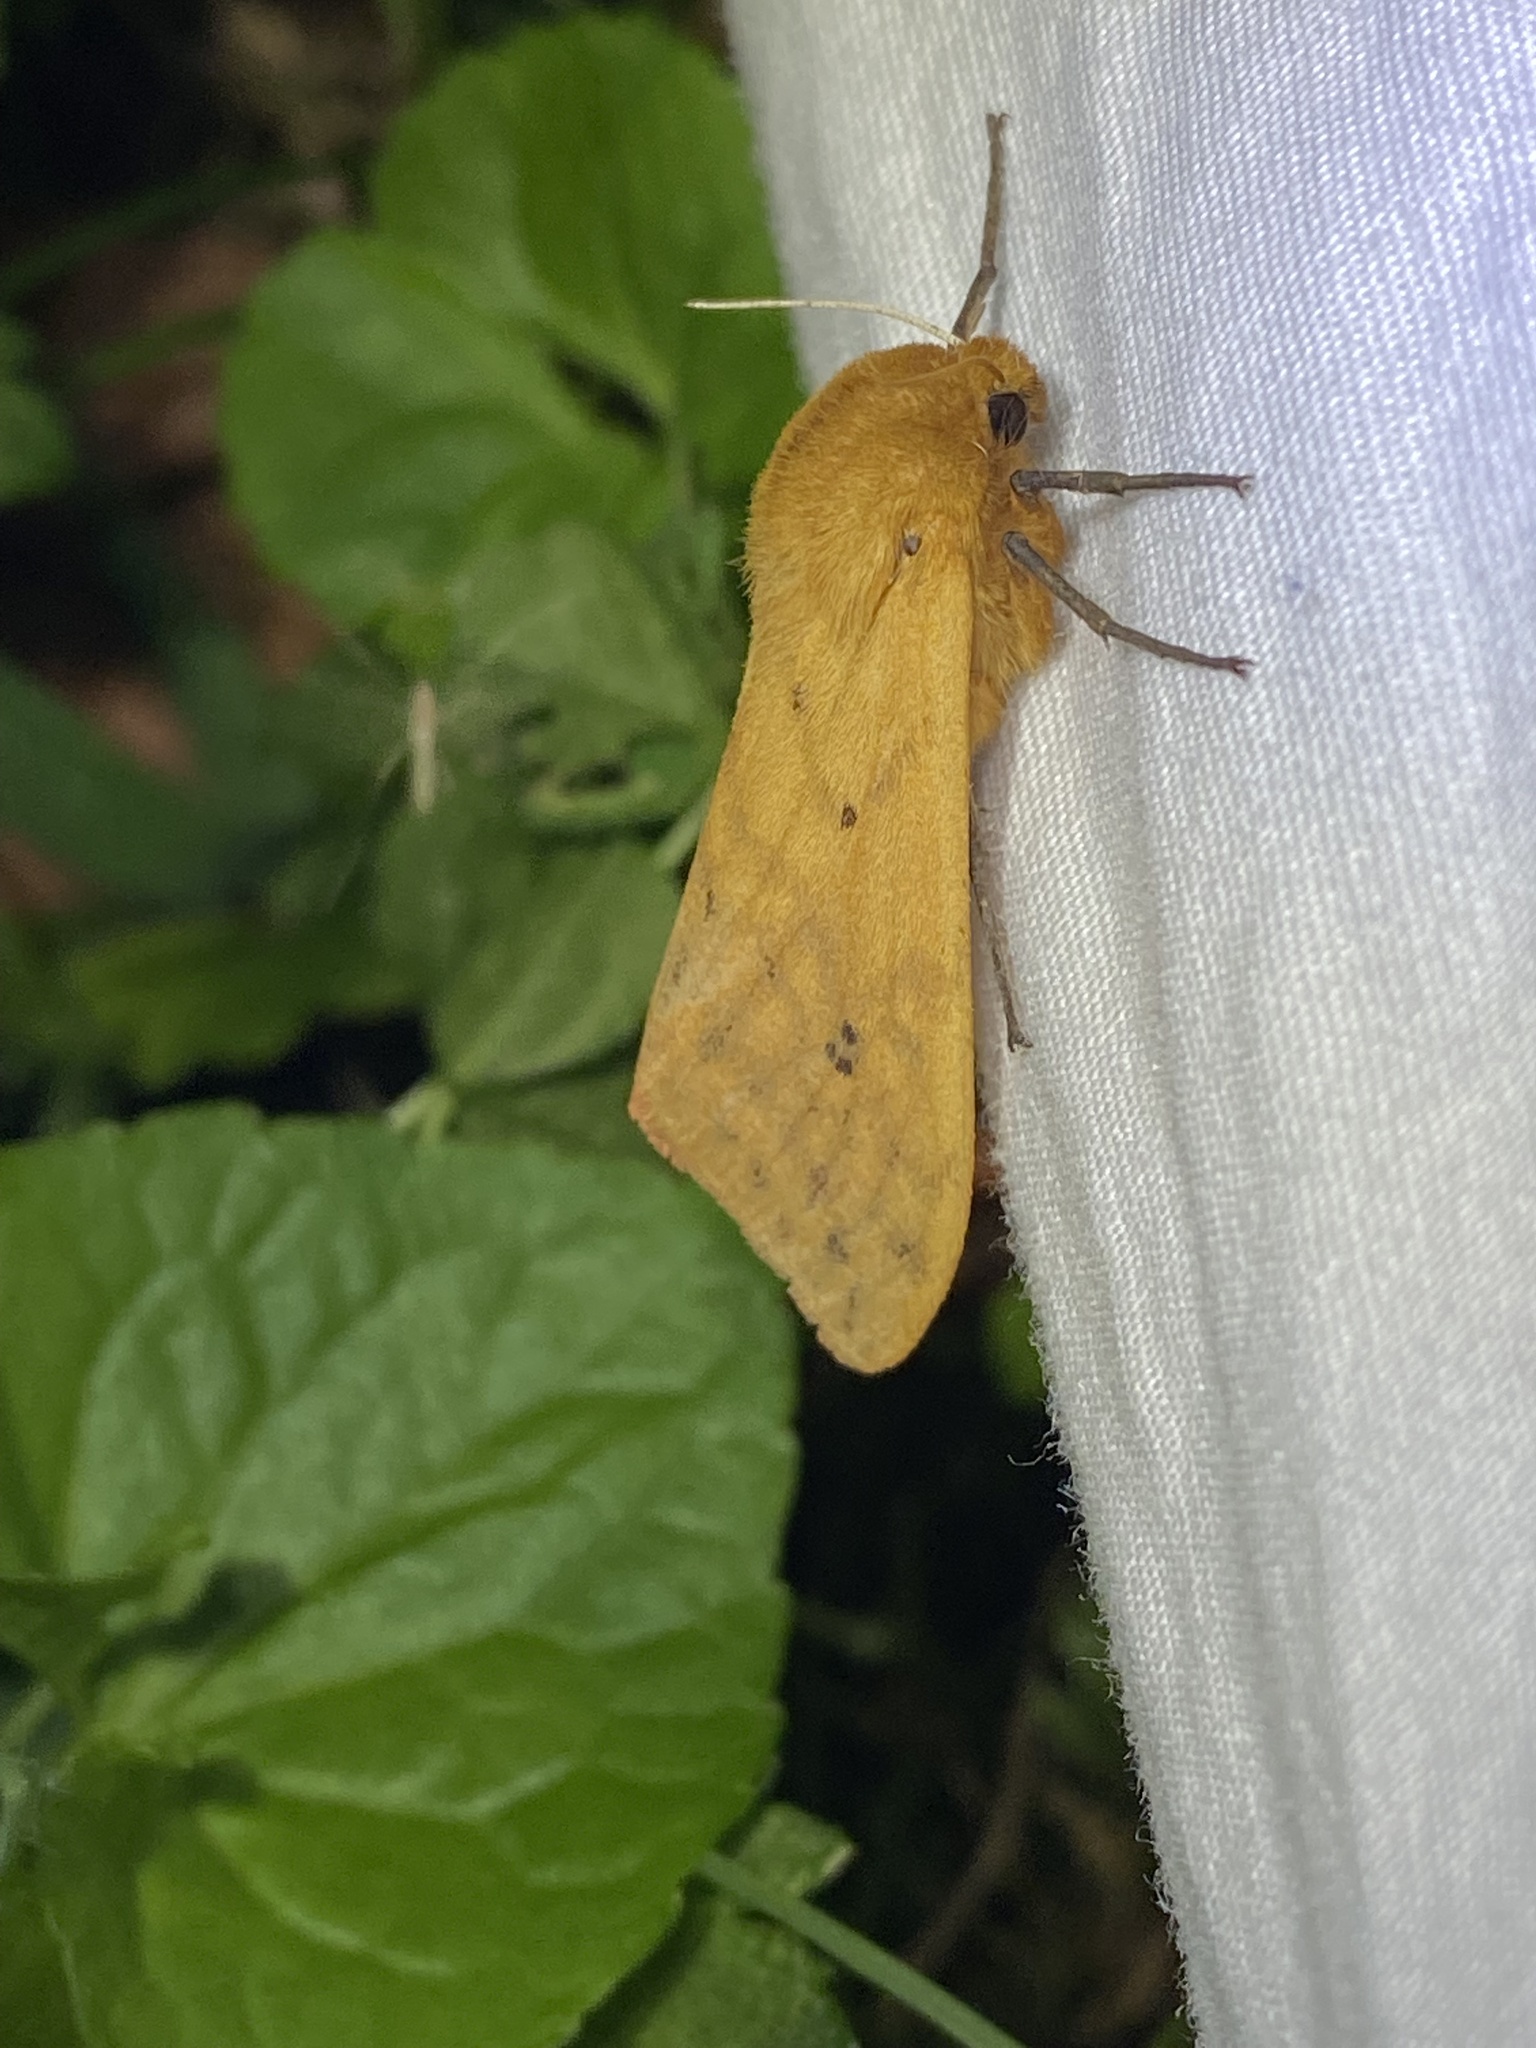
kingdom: Animalia
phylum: Arthropoda
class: Insecta
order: Lepidoptera
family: Erebidae
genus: Pyrrharctia
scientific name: Pyrrharctia isabella
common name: Isabella tiger moth
